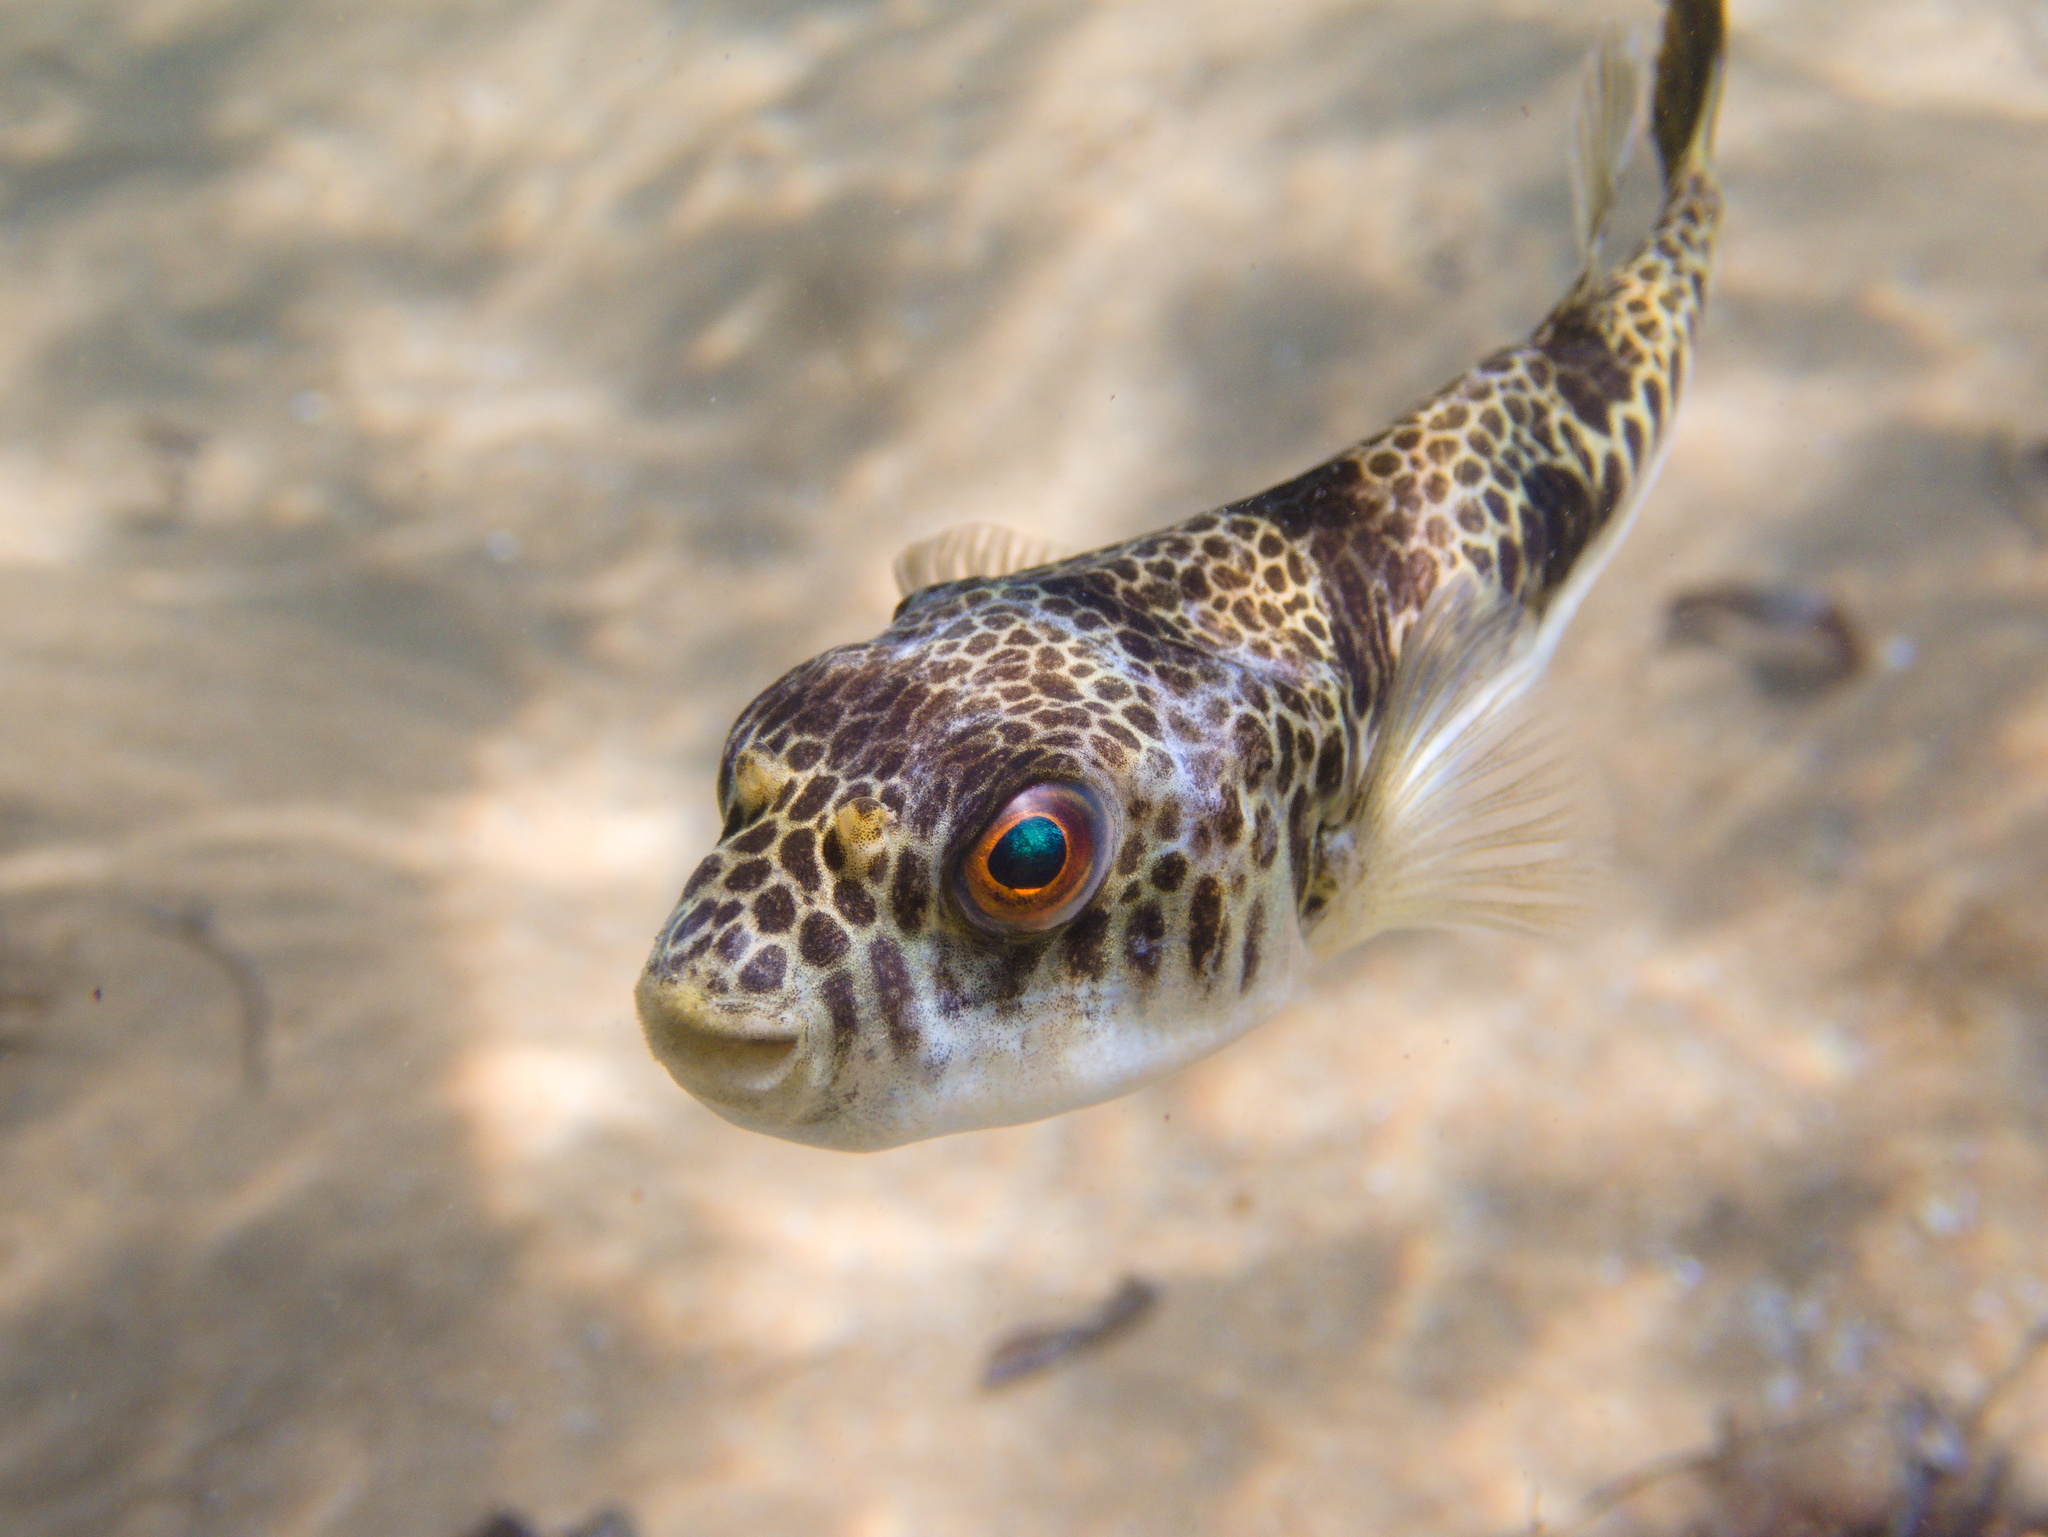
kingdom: Animalia
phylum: Chordata
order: Tetraodontiformes
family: Tetraodontidae
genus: Tetractenos
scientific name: Tetractenos glaber
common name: Smooth toadfish
